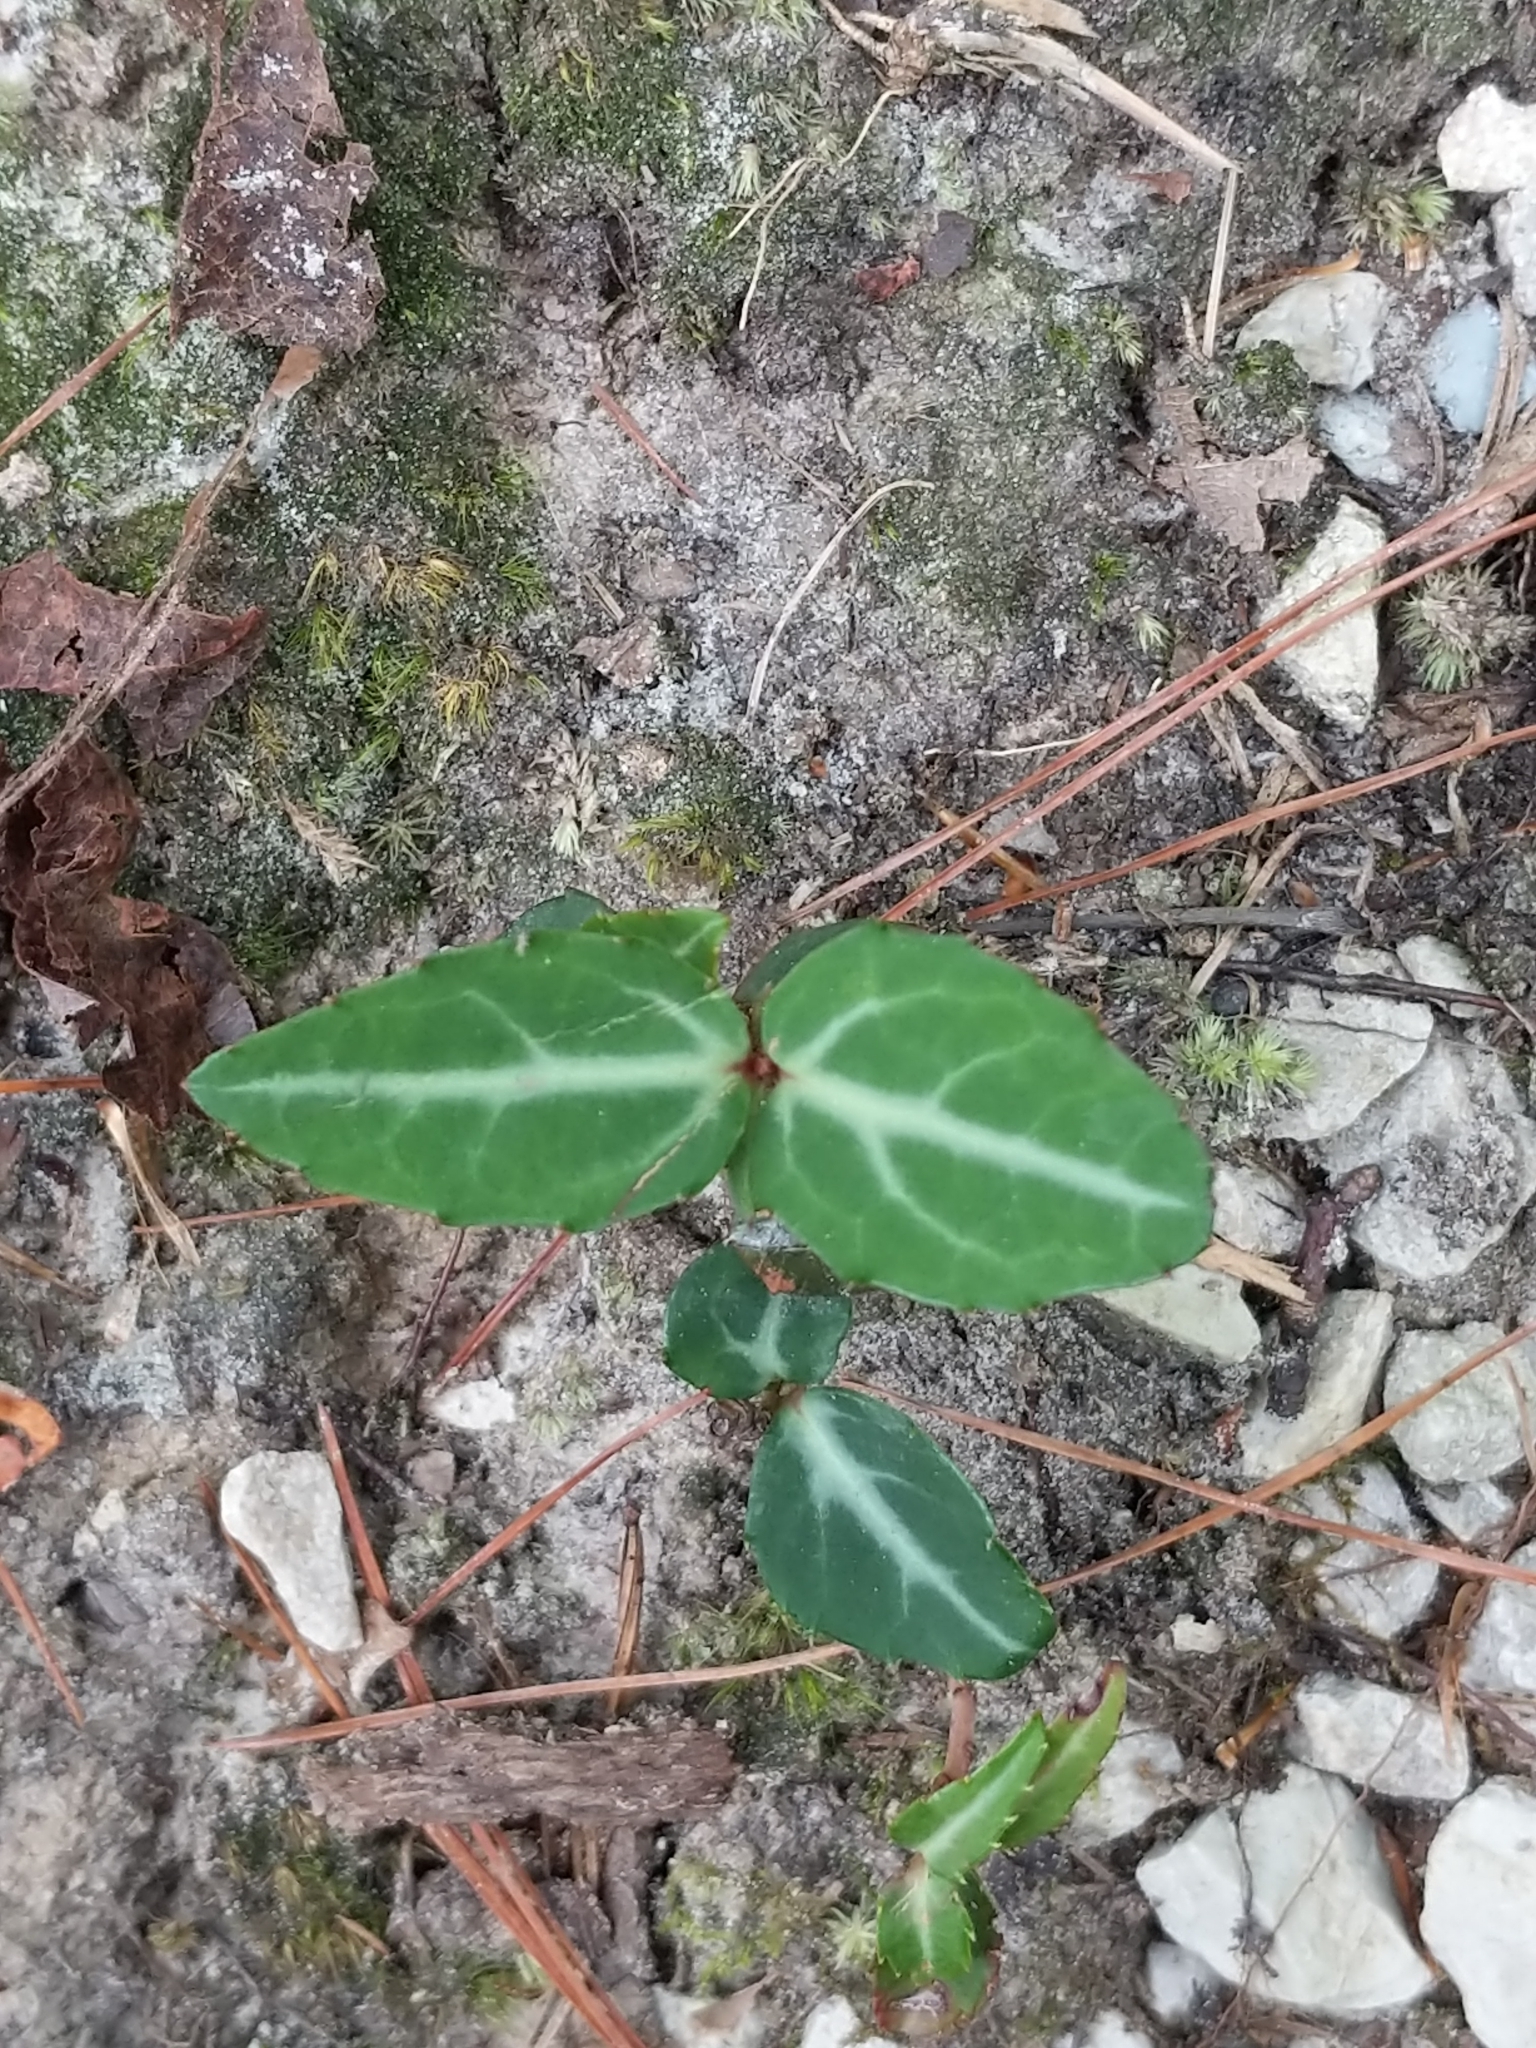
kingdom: Plantae
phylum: Tracheophyta
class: Magnoliopsida
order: Ericales
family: Ericaceae
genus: Chimaphila
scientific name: Chimaphila maculata
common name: Spotted pipsissewa
